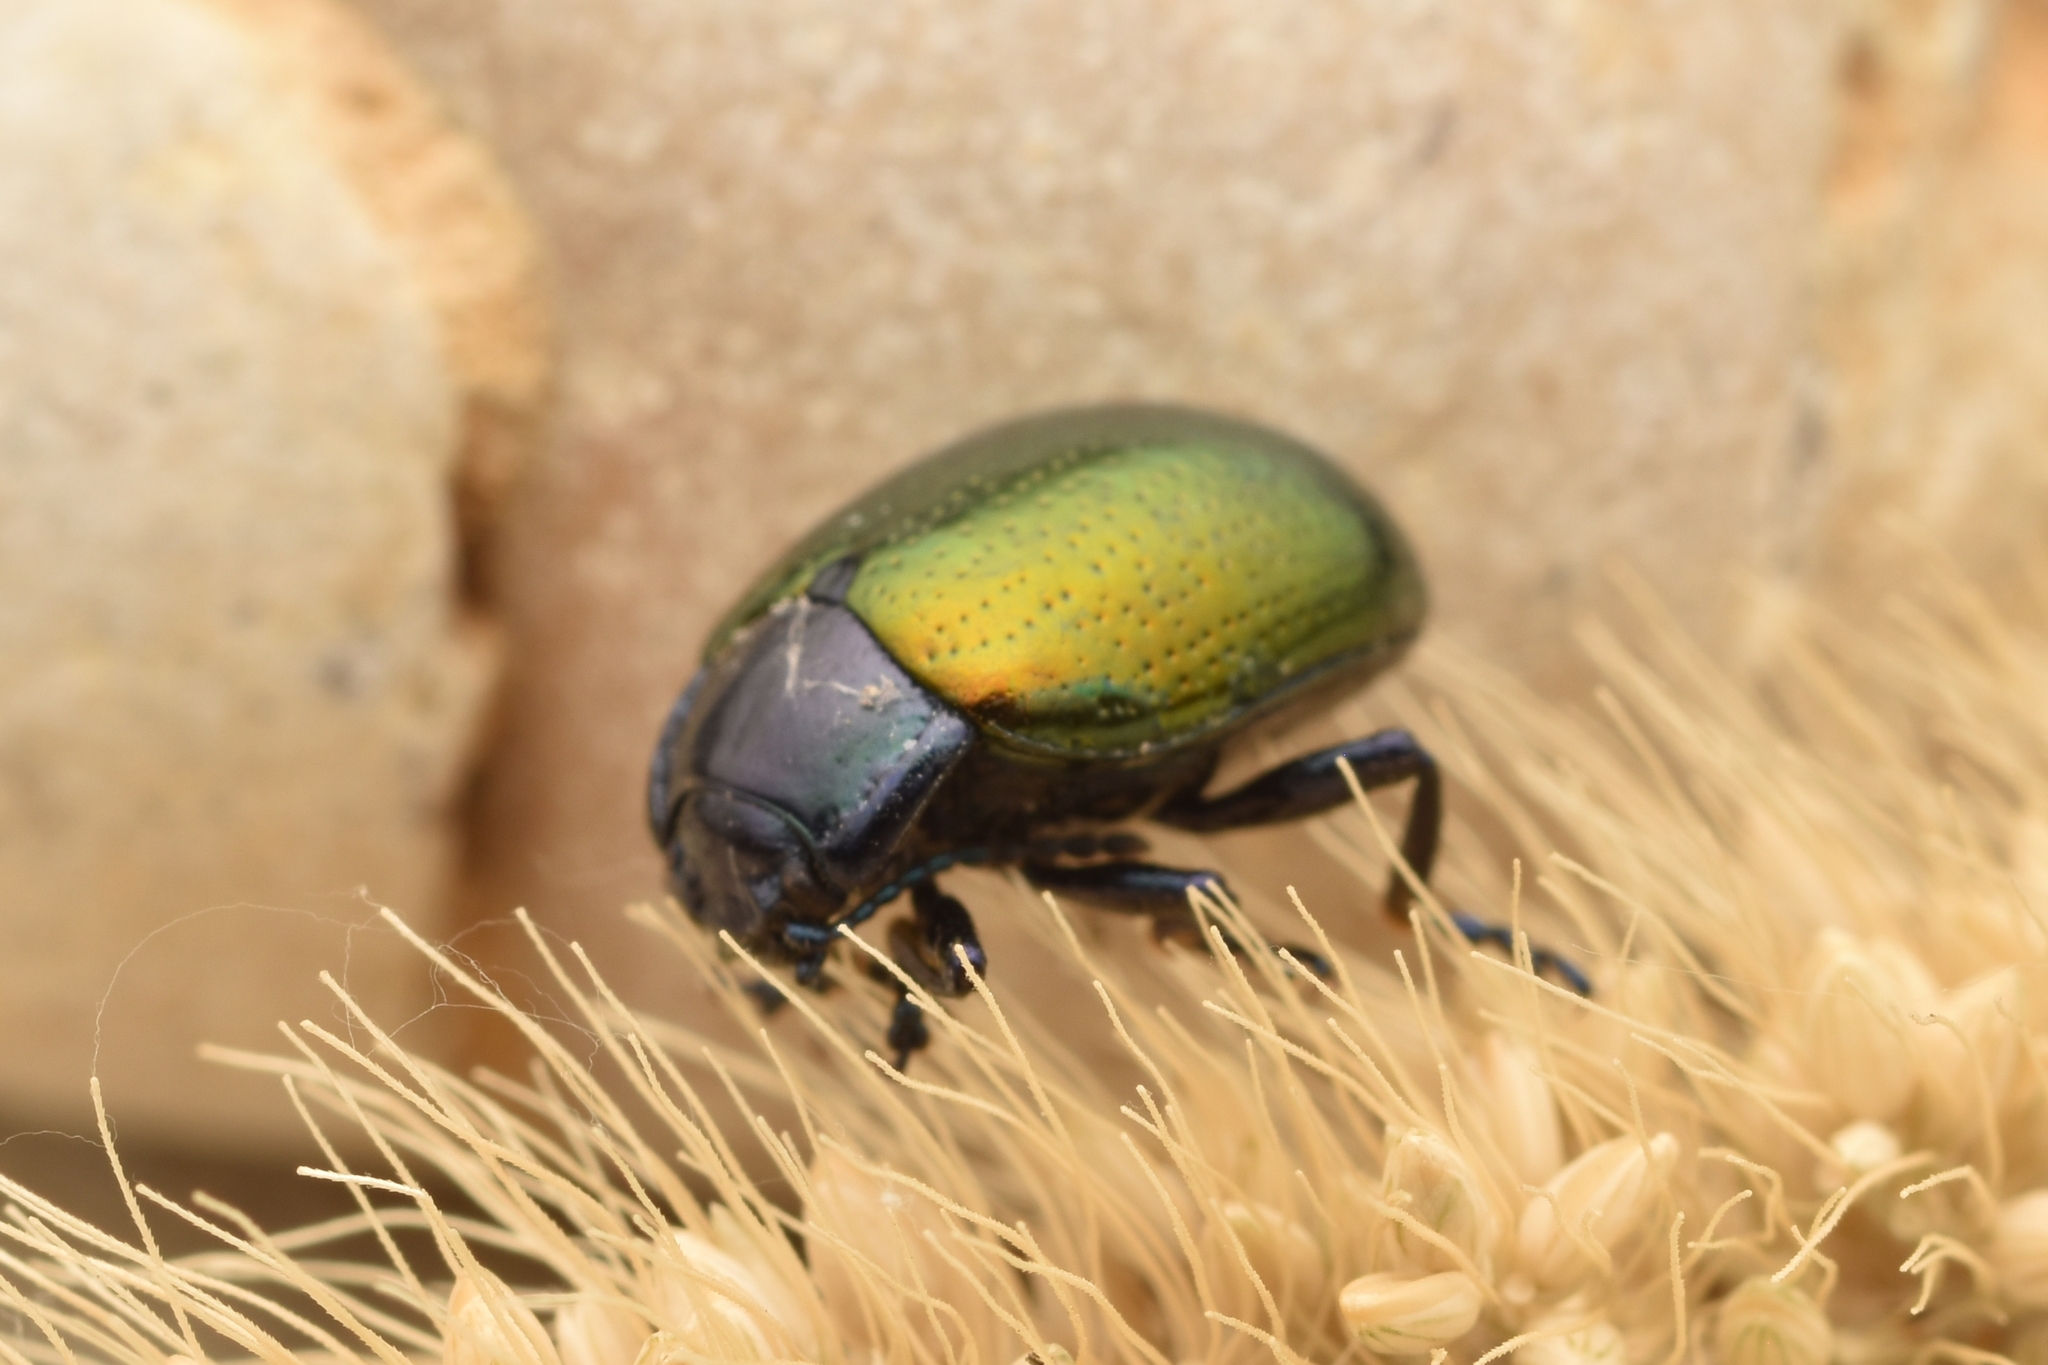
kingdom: Animalia
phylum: Arthropoda
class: Insecta
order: Coleoptera
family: Chrysomelidae
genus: Chrysolina
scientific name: Chrysolina auripennis
